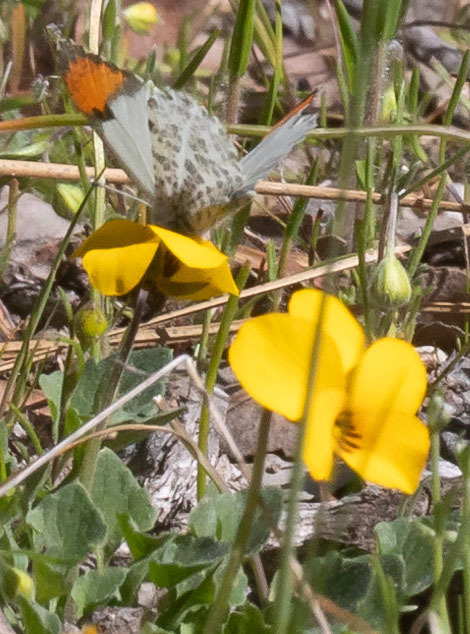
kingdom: Animalia
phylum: Arthropoda
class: Insecta
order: Lepidoptera
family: Pieridae
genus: Anthocharis
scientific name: Anthocharis sara
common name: Sara's orangetip
